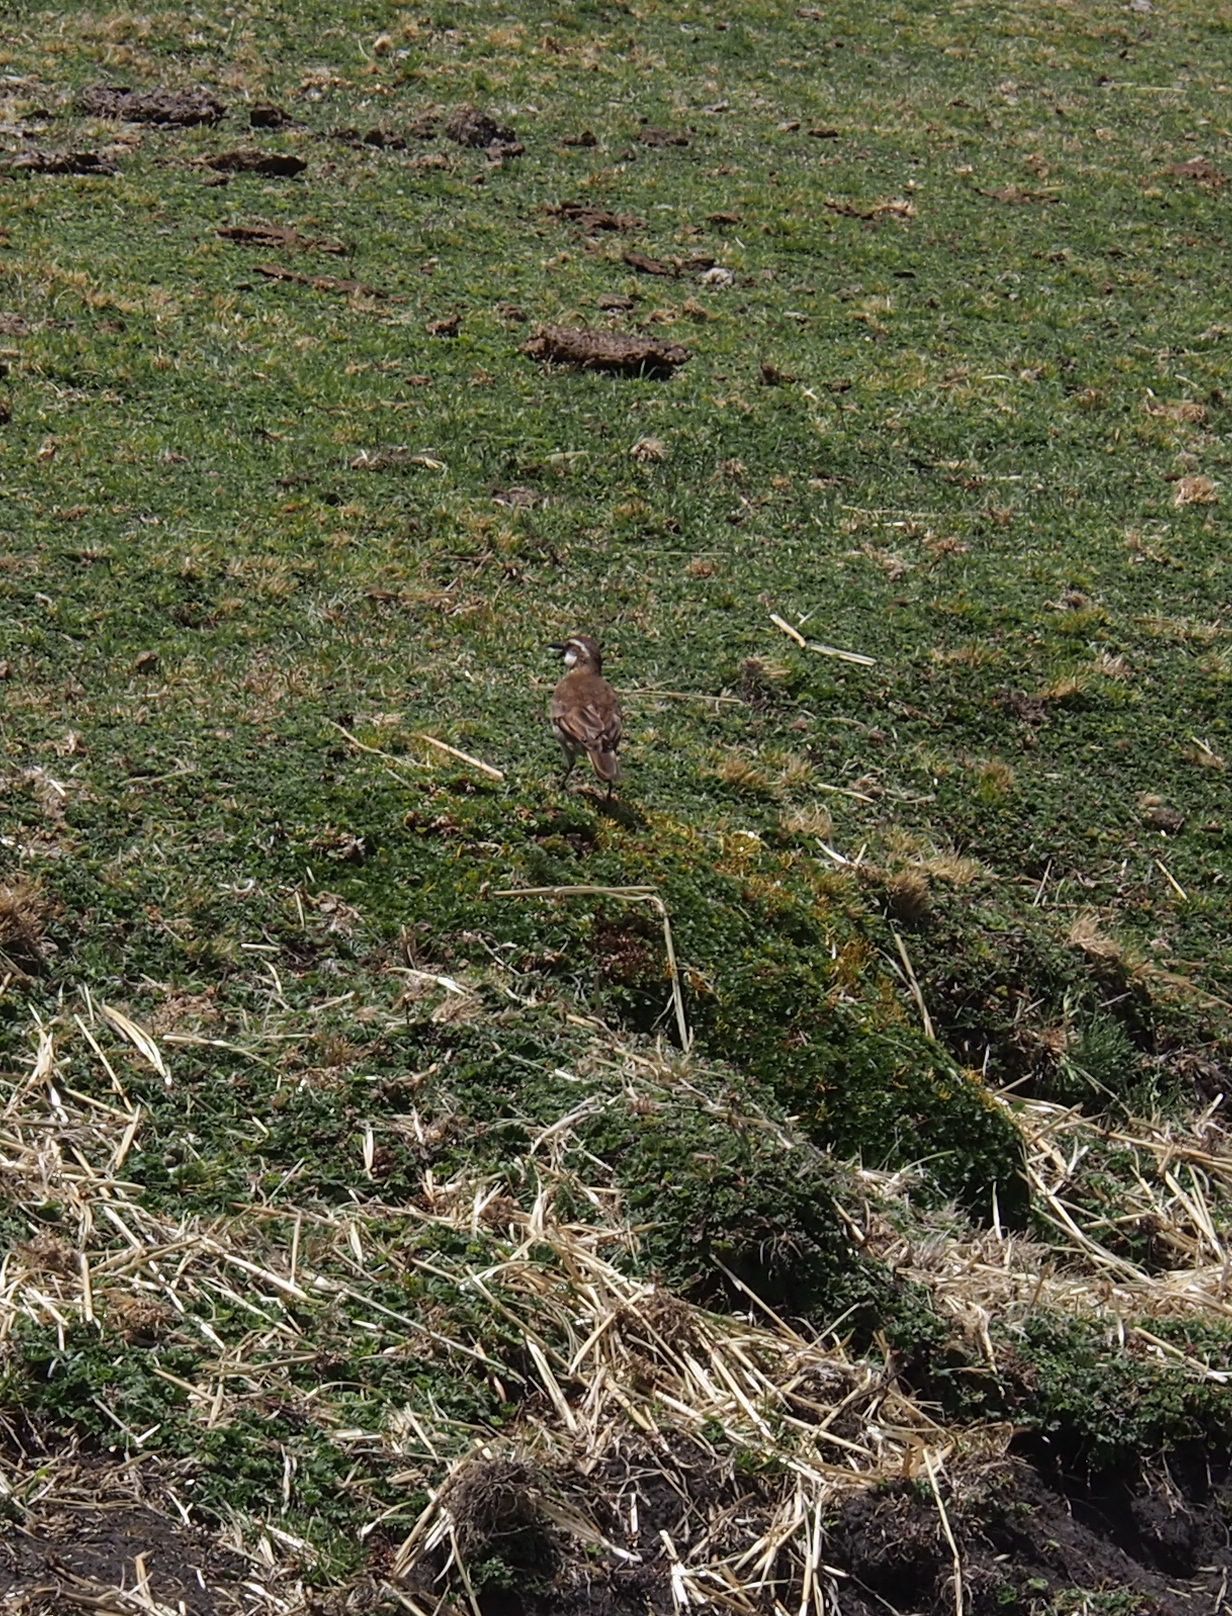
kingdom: Animalia
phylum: Chordata
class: Aves
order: Passeriformes
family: Furnariidae
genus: Cinclodes
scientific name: Cinclodes excelsior
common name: Stout-billed cinclodes
